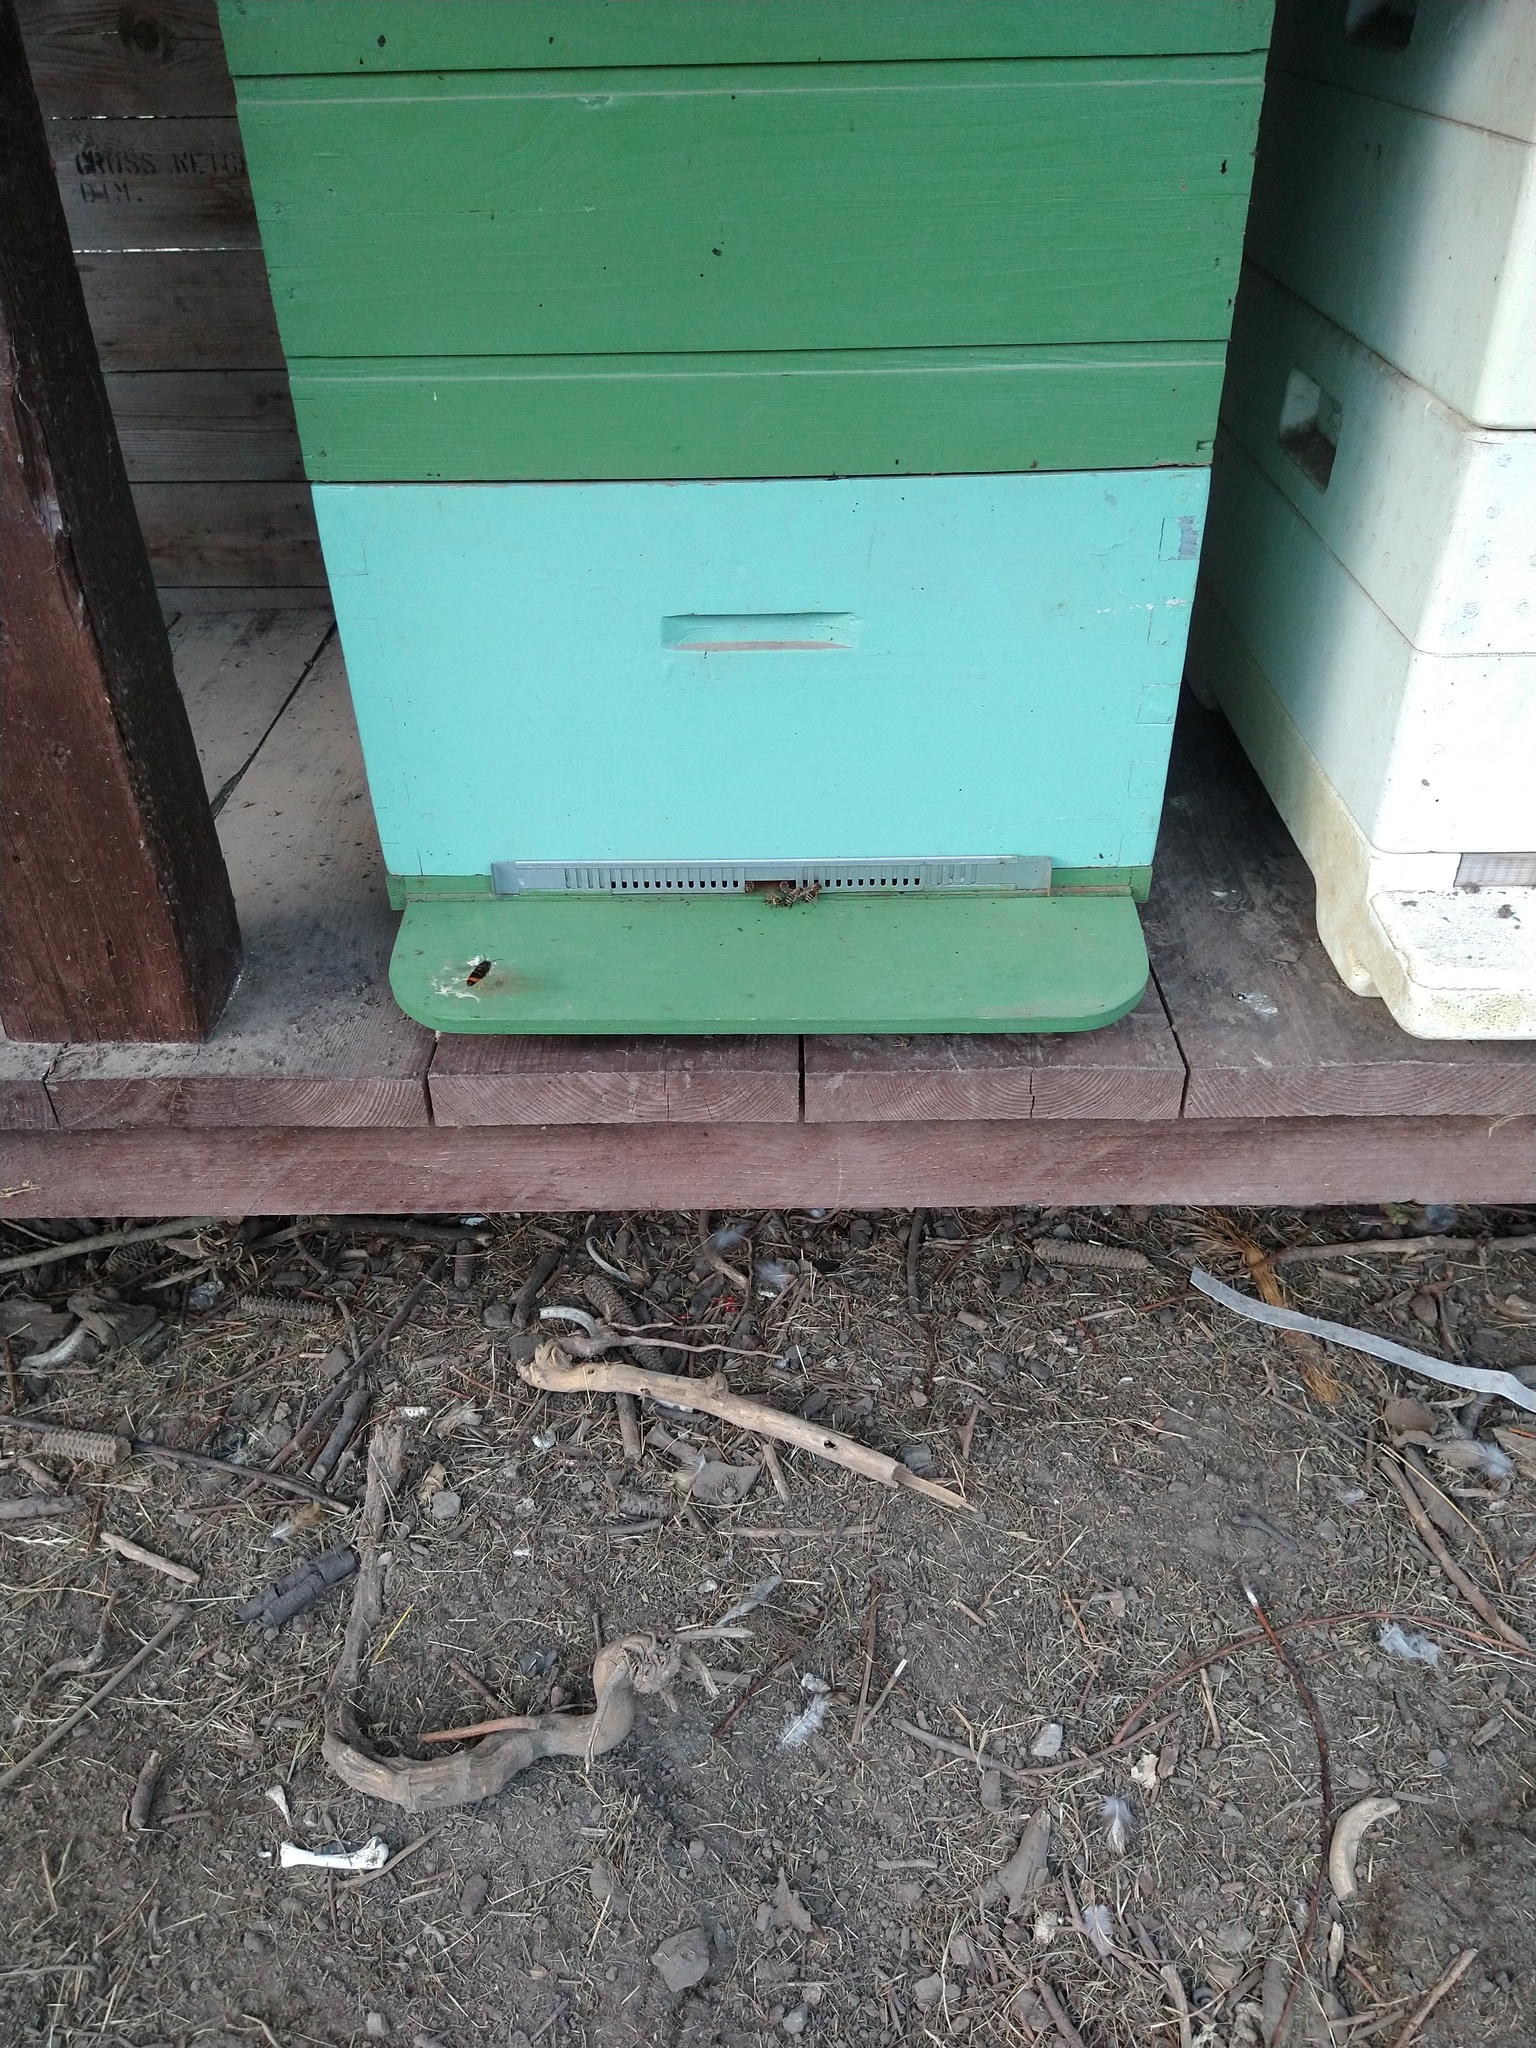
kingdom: Animalia
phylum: Arthropoda
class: Insecta
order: Hymenoptera
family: Vespidae
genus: Vespa
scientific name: Vespa velutina
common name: Asian hornet
